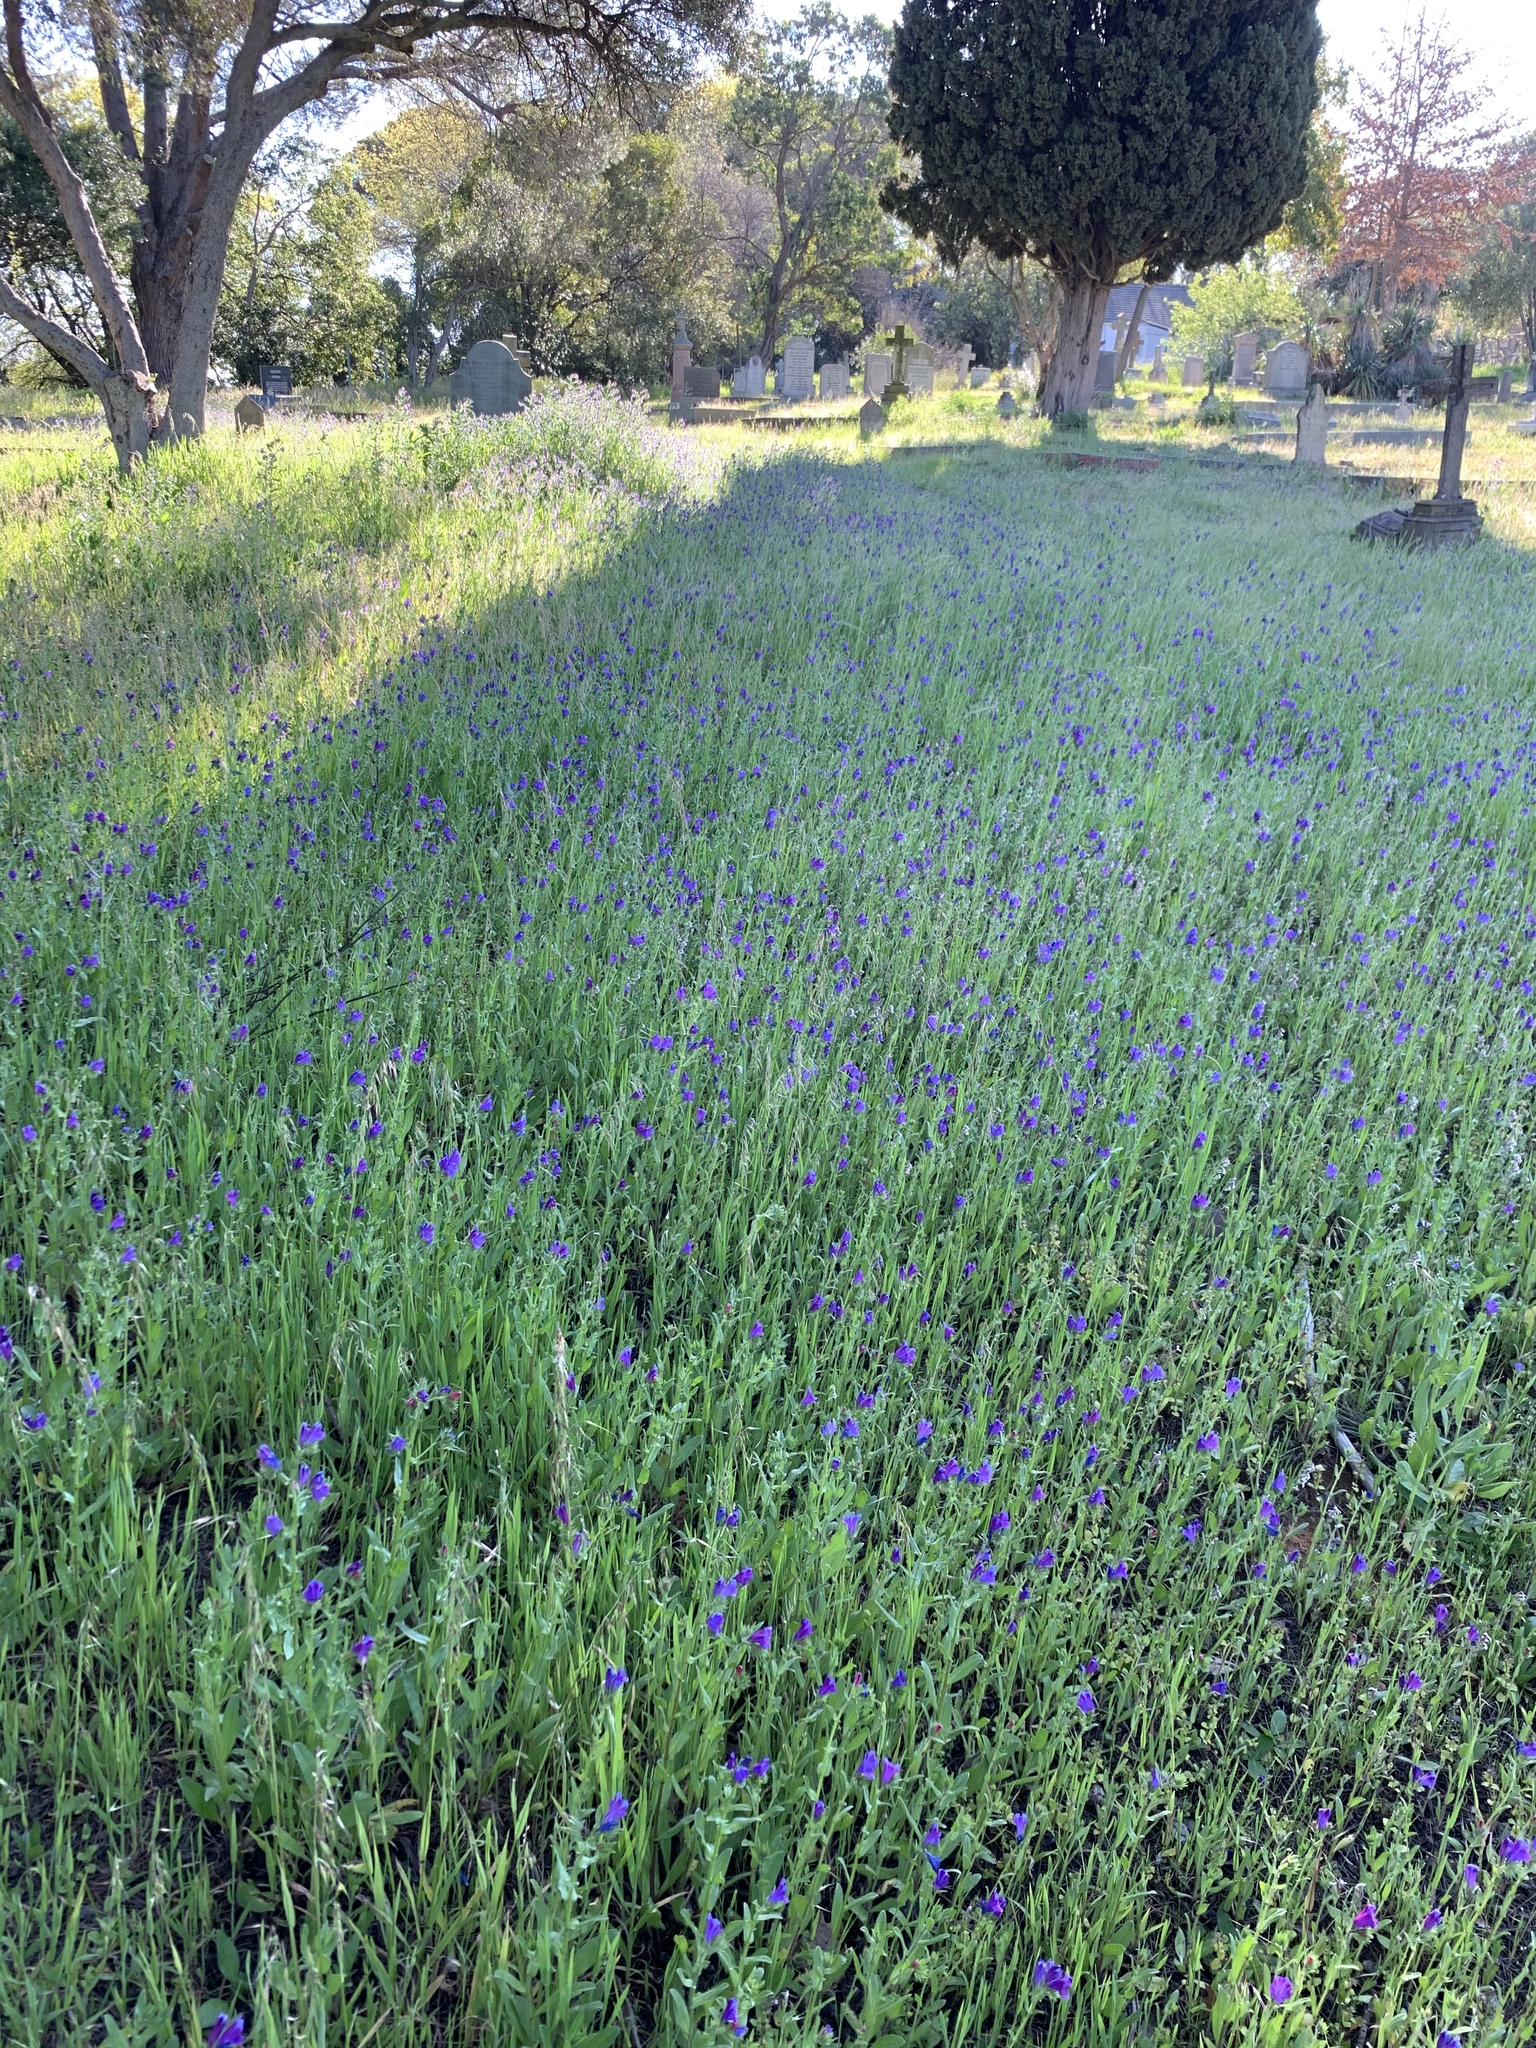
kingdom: Plantae
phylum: Tracheophyta
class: Magnoliopsida
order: Boraginales
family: Boraginaceae
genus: Echium
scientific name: Echium plantagineum
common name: Purple viper's-bugloss
